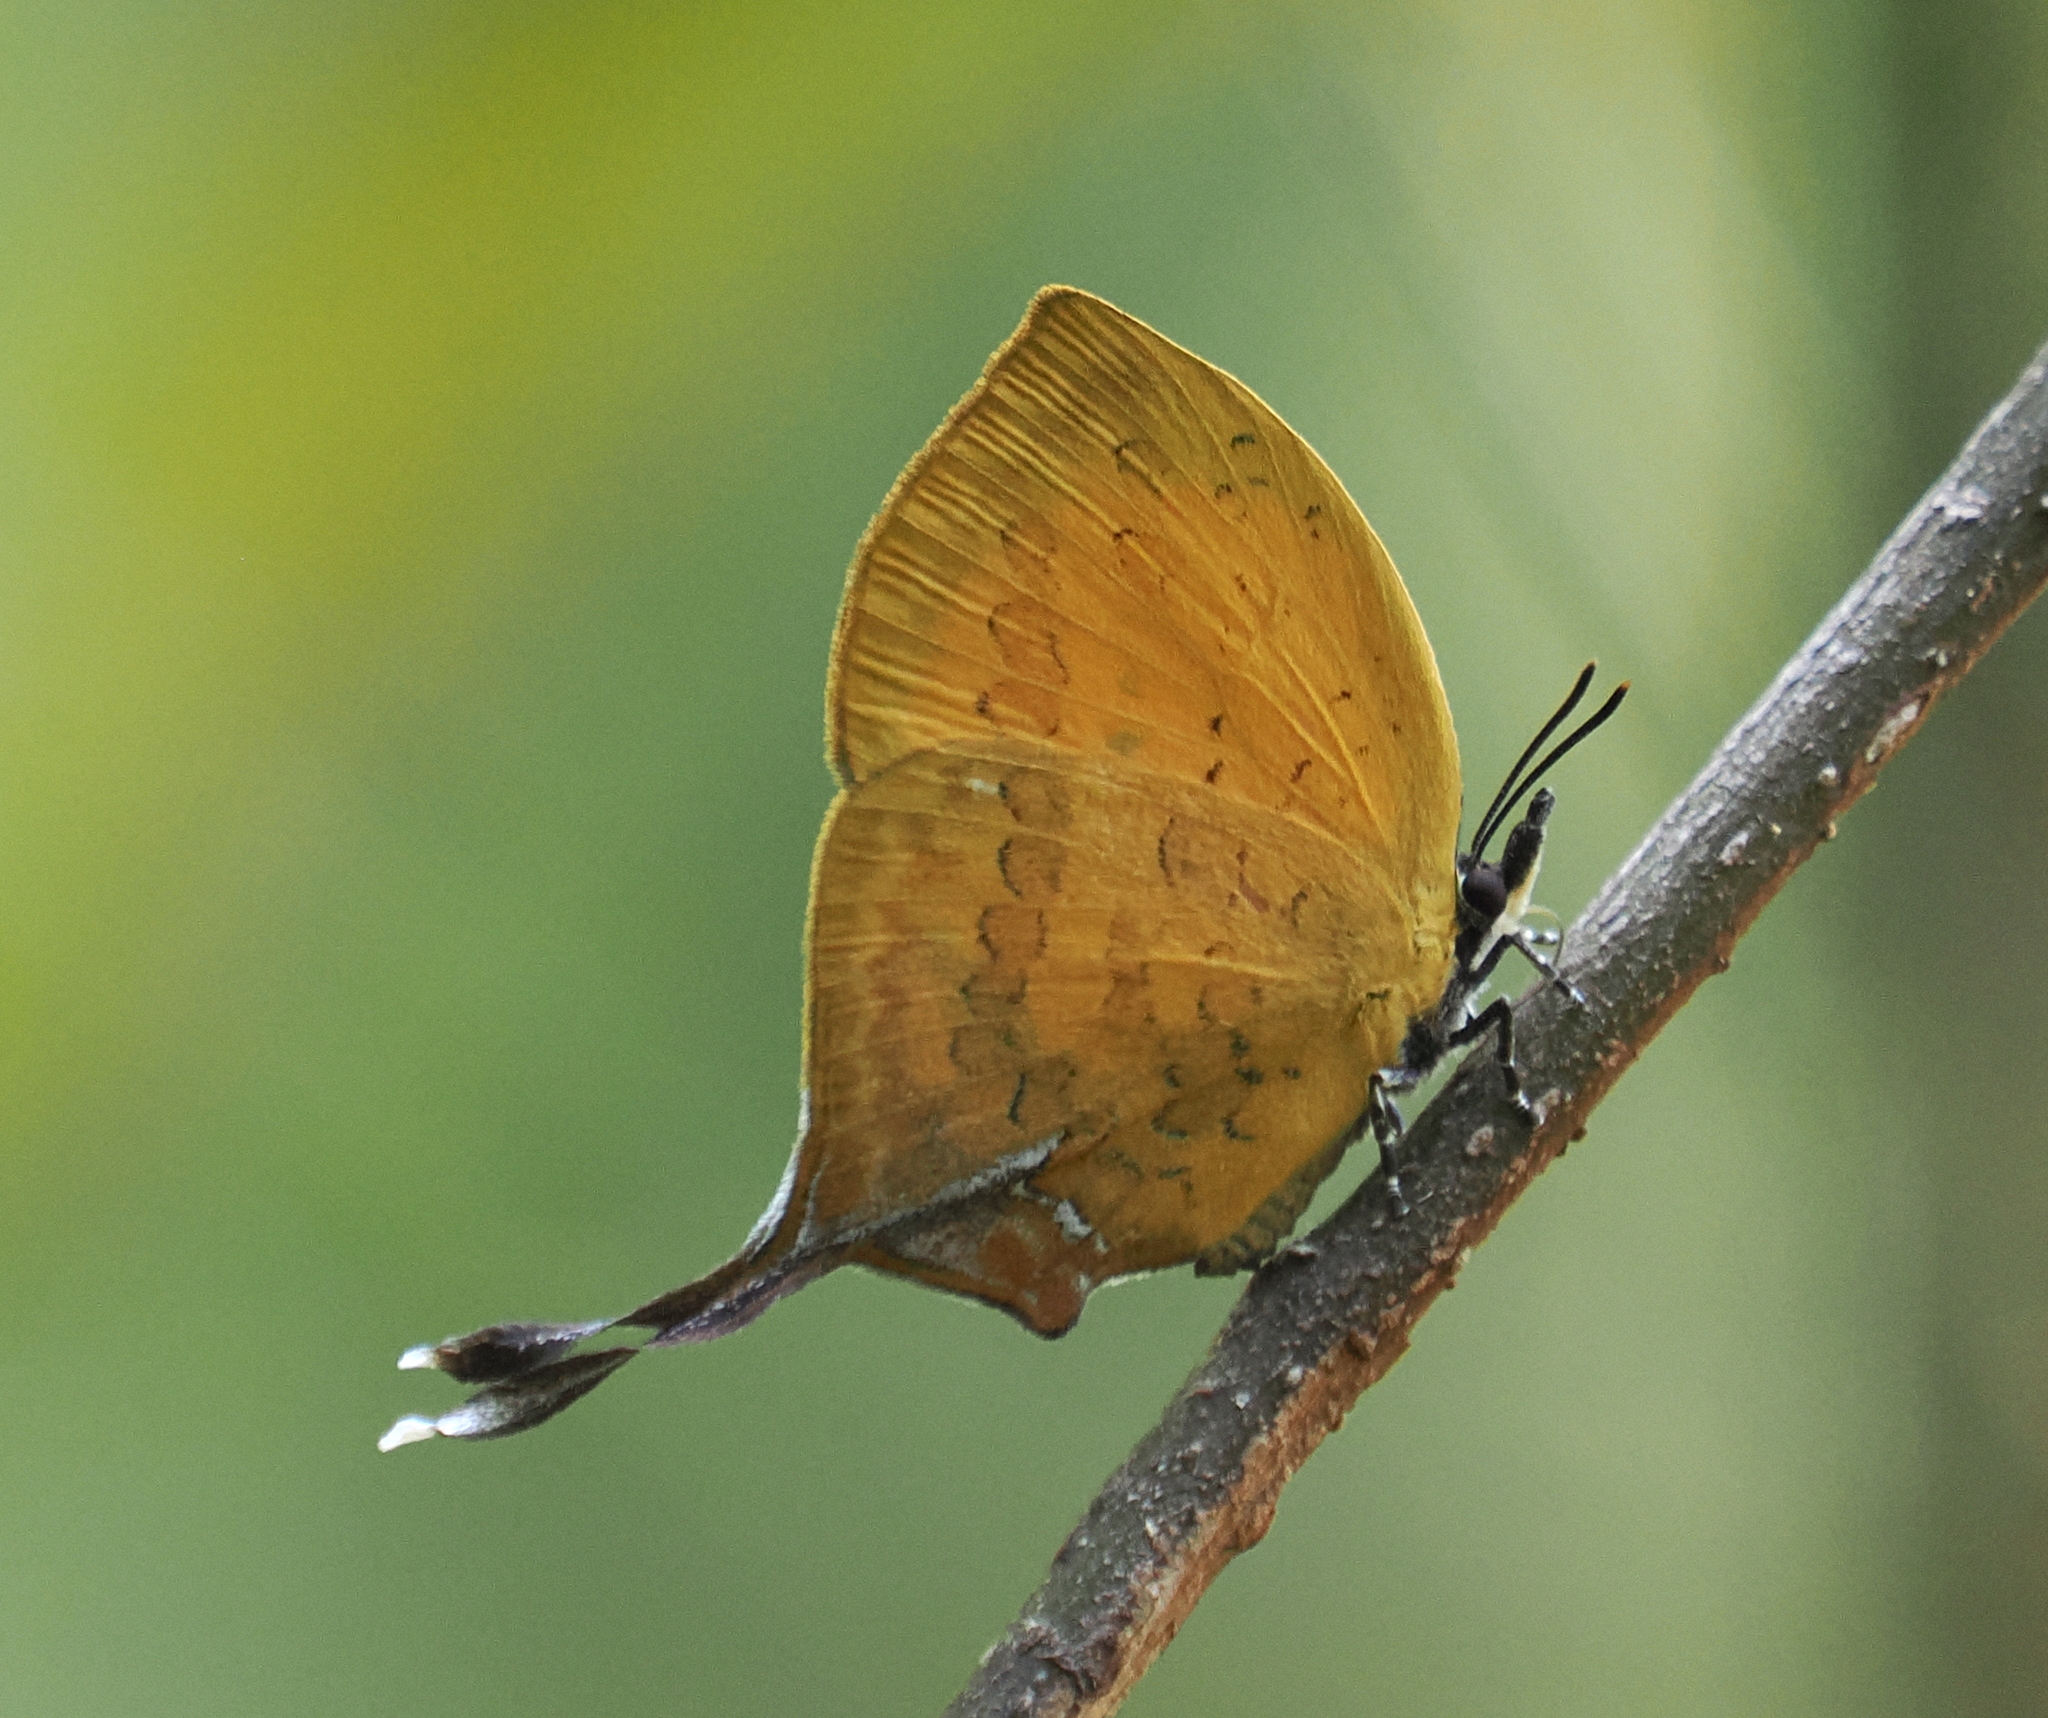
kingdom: Animalia
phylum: Arthropoda
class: Insecta
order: Lepidoptera
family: Lycaenidae
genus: Yasoda
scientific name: Yasoda tripunctata
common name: Branded yamfly
